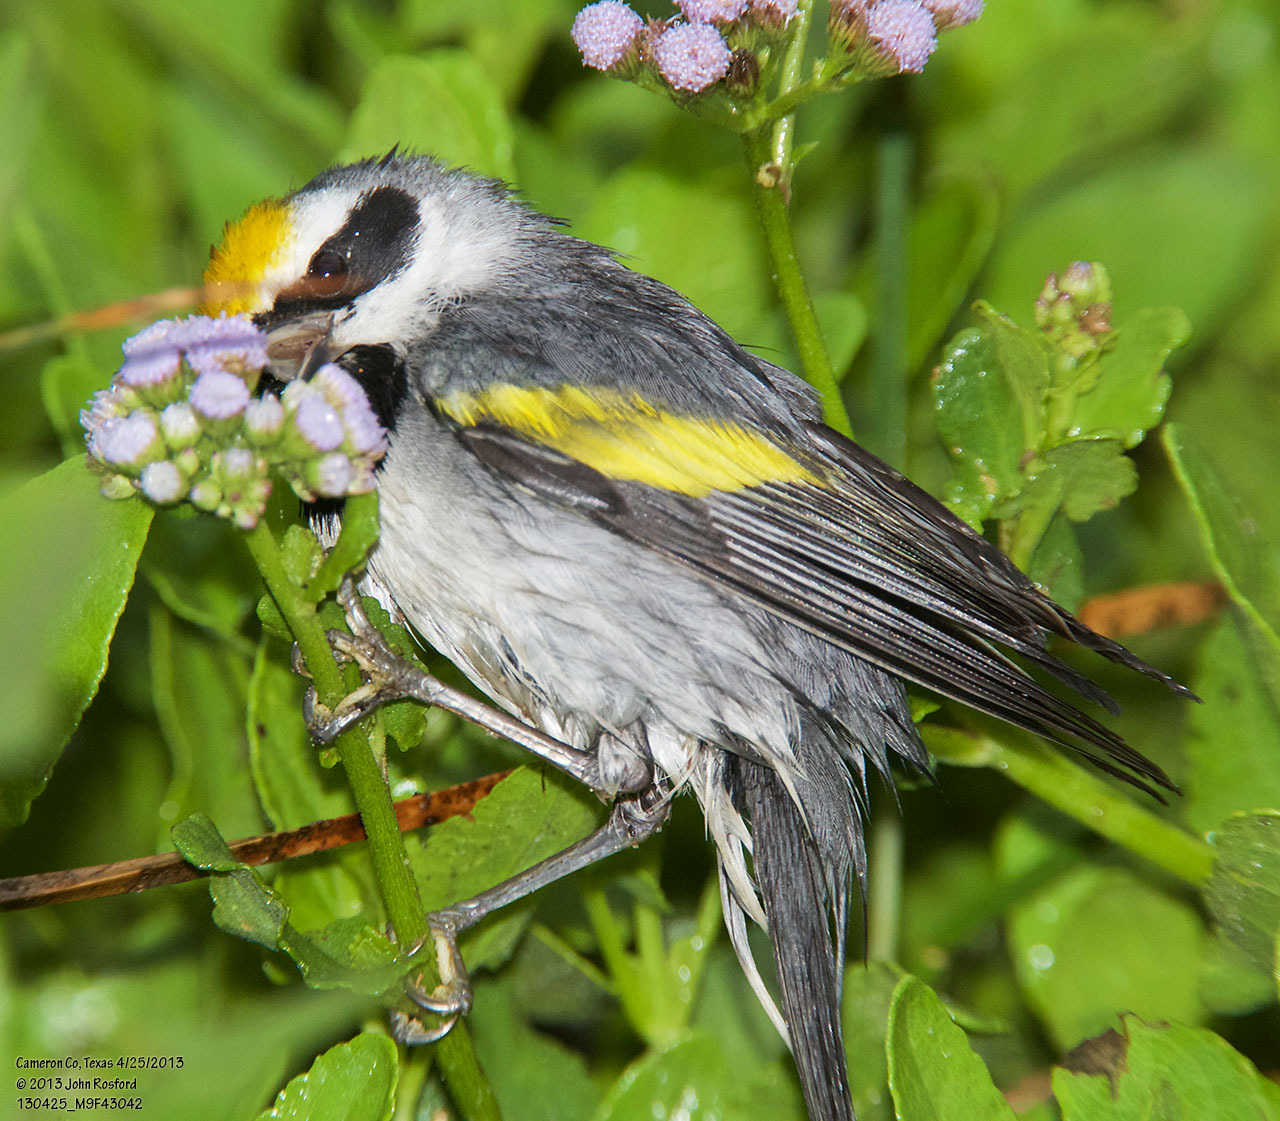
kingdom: Animalia
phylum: Chordata
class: Aves
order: Passeriformes
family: Parulidae
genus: Vermivora
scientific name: Vermivora chrysoptera
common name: Golden-winged warbler
